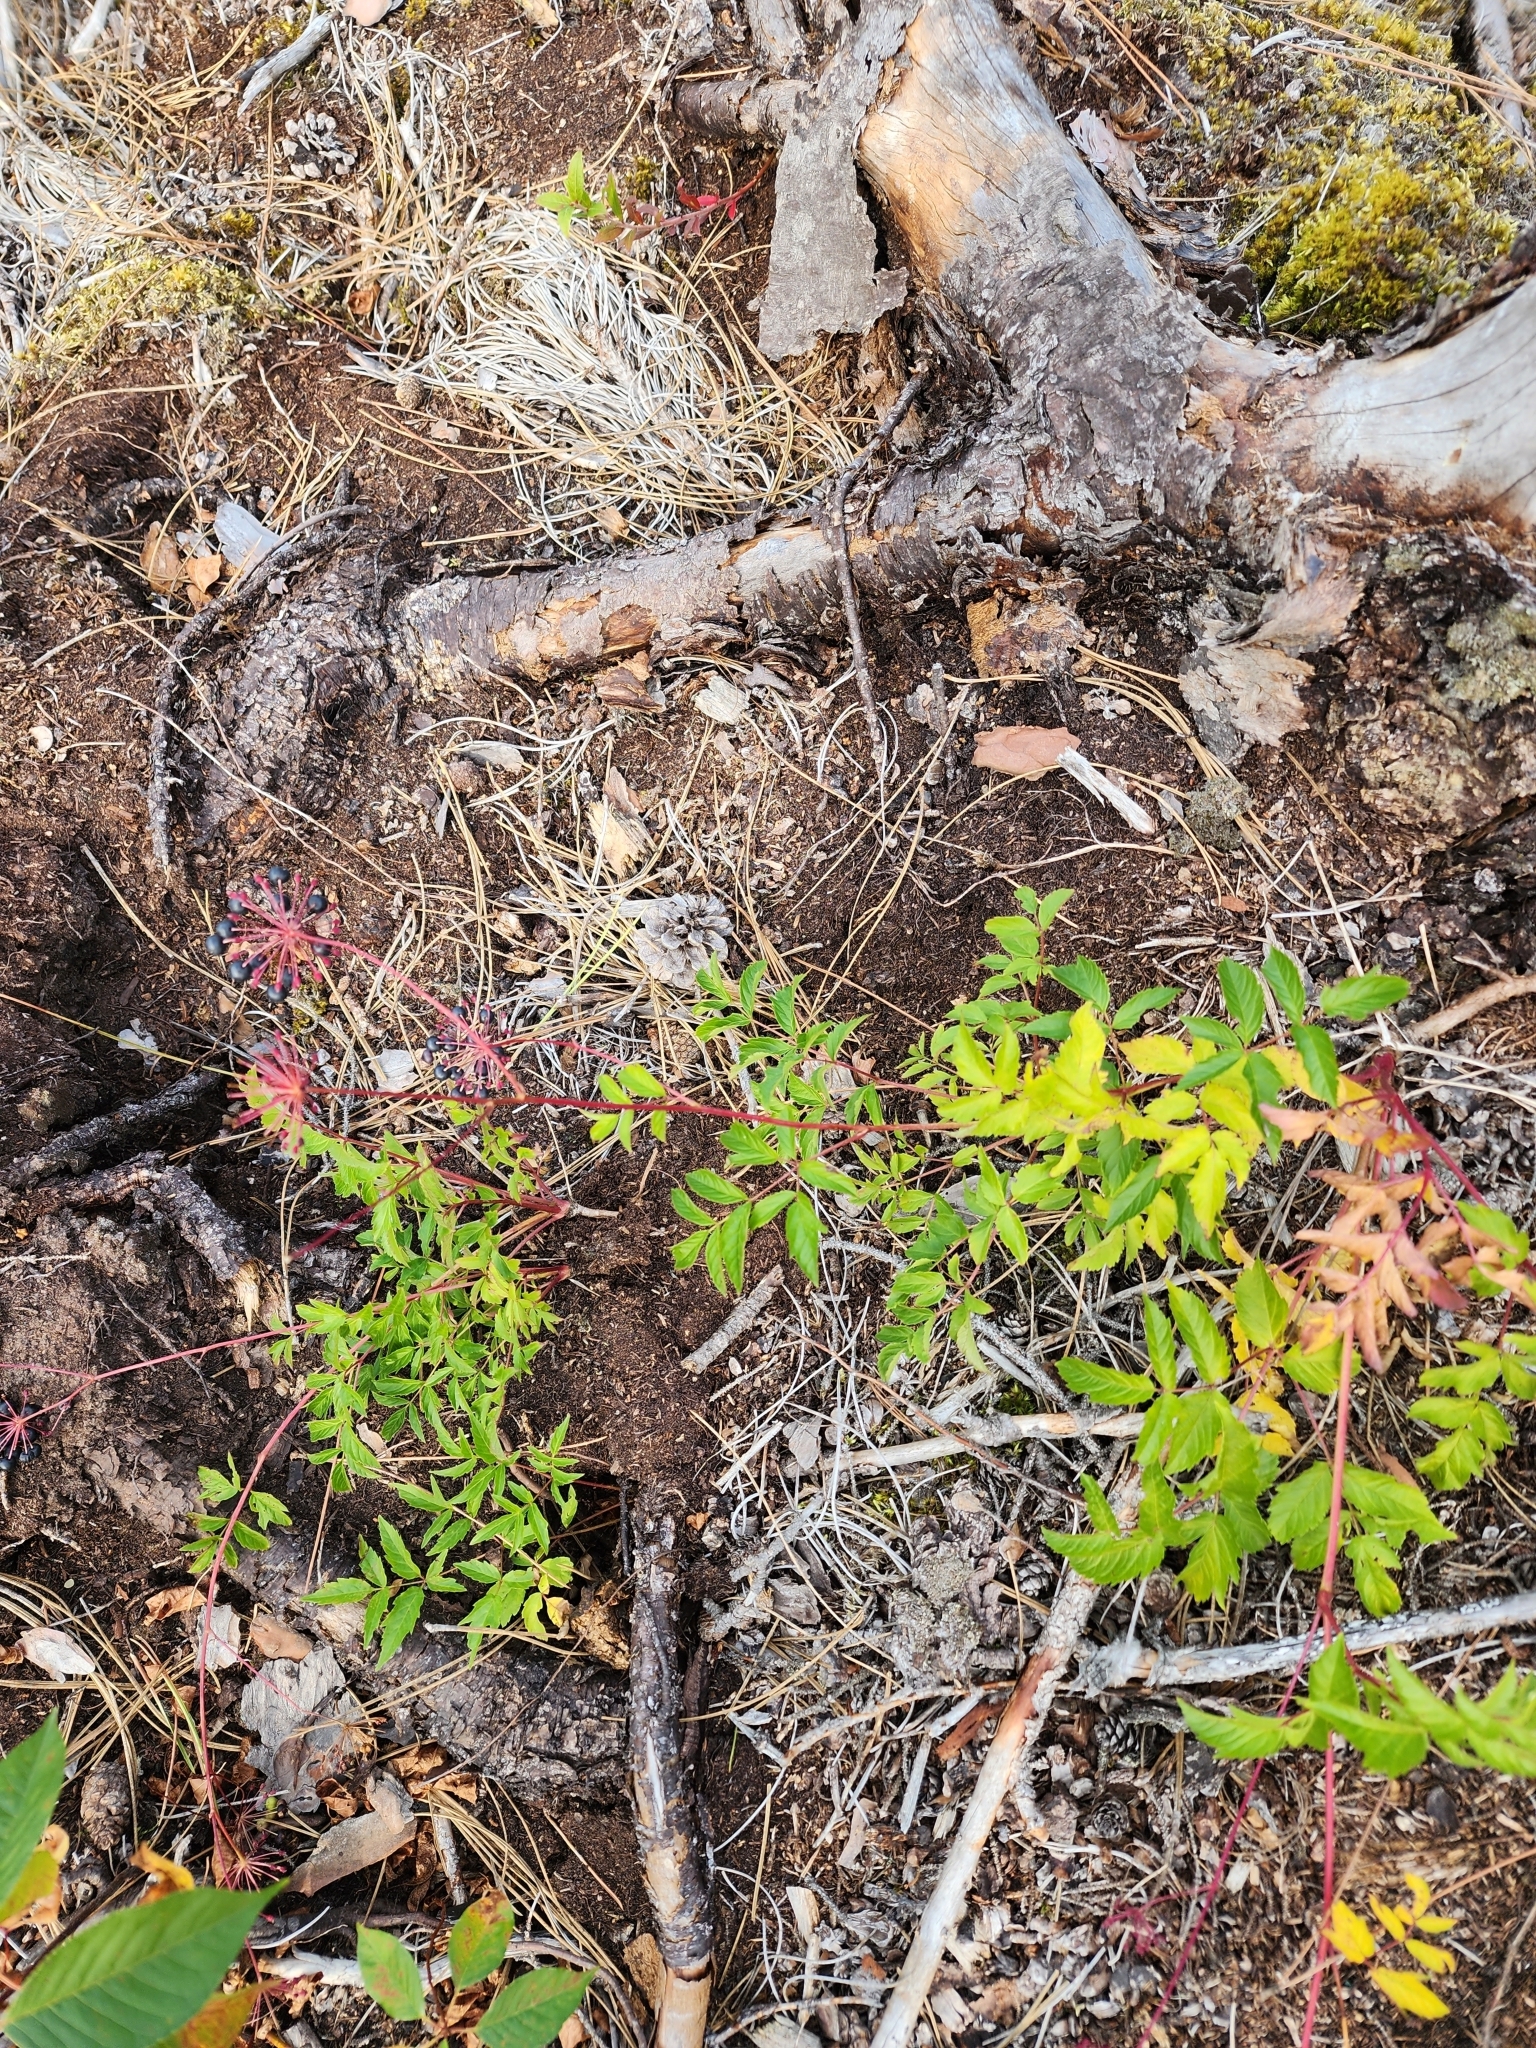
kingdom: Plantae
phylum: Tracheophyta
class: Magnoliopsida
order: Apiales
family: Araliaceae
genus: Aralia
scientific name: Aralia hispida
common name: Bristly sarsaparilla
